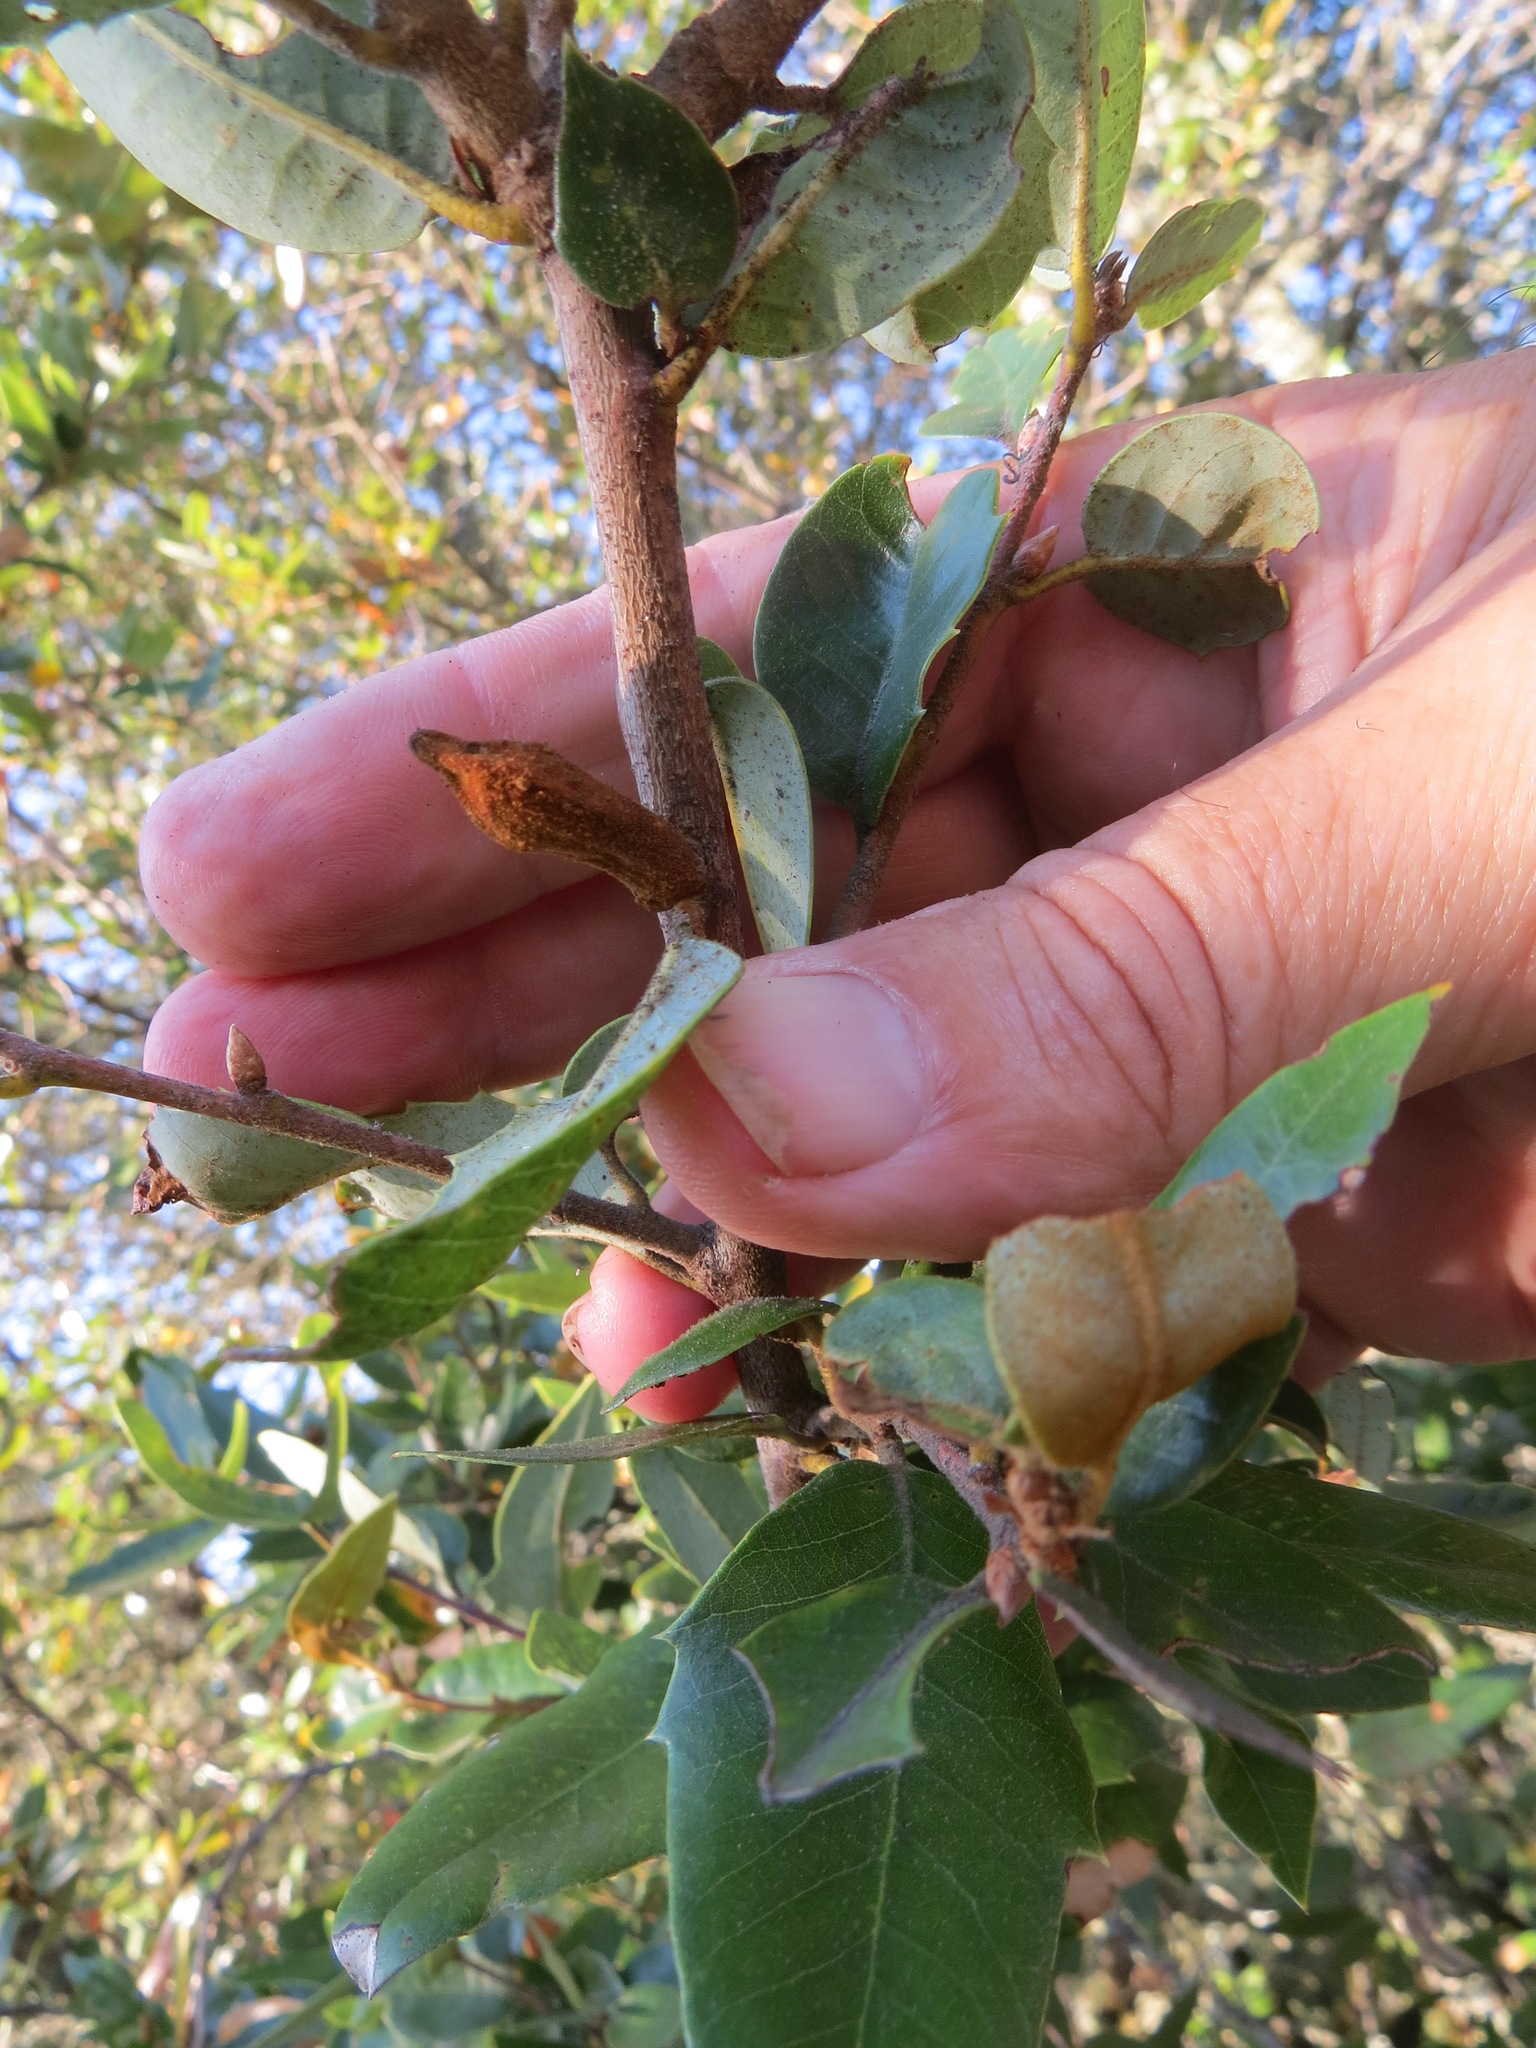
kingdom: Animalia
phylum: Arthropoda
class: Insecta
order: Hymenoptera
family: Cynipidae
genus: Heteroecus
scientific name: Heteroecus
